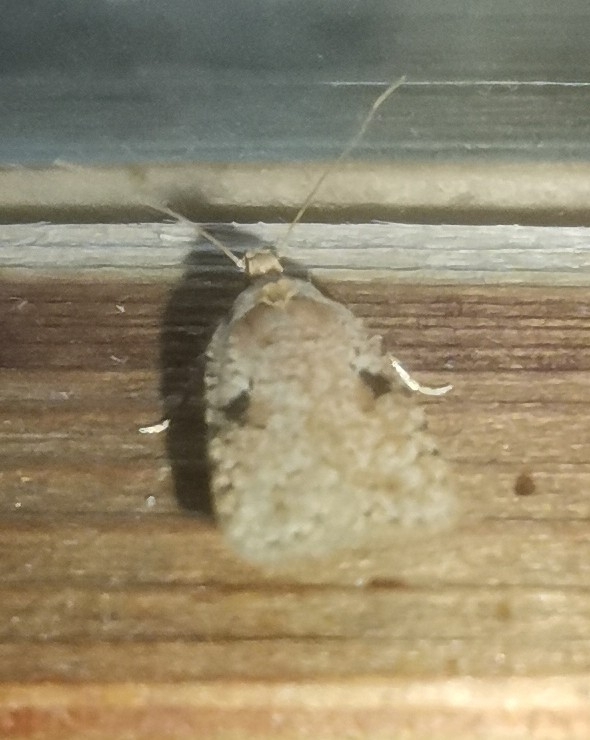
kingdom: Animalia
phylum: Arthropoda
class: Insecta
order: Lepidoptera
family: Depressariidae
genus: Agonopterix
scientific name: Agonopterix arenella
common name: Brindled flat-body
